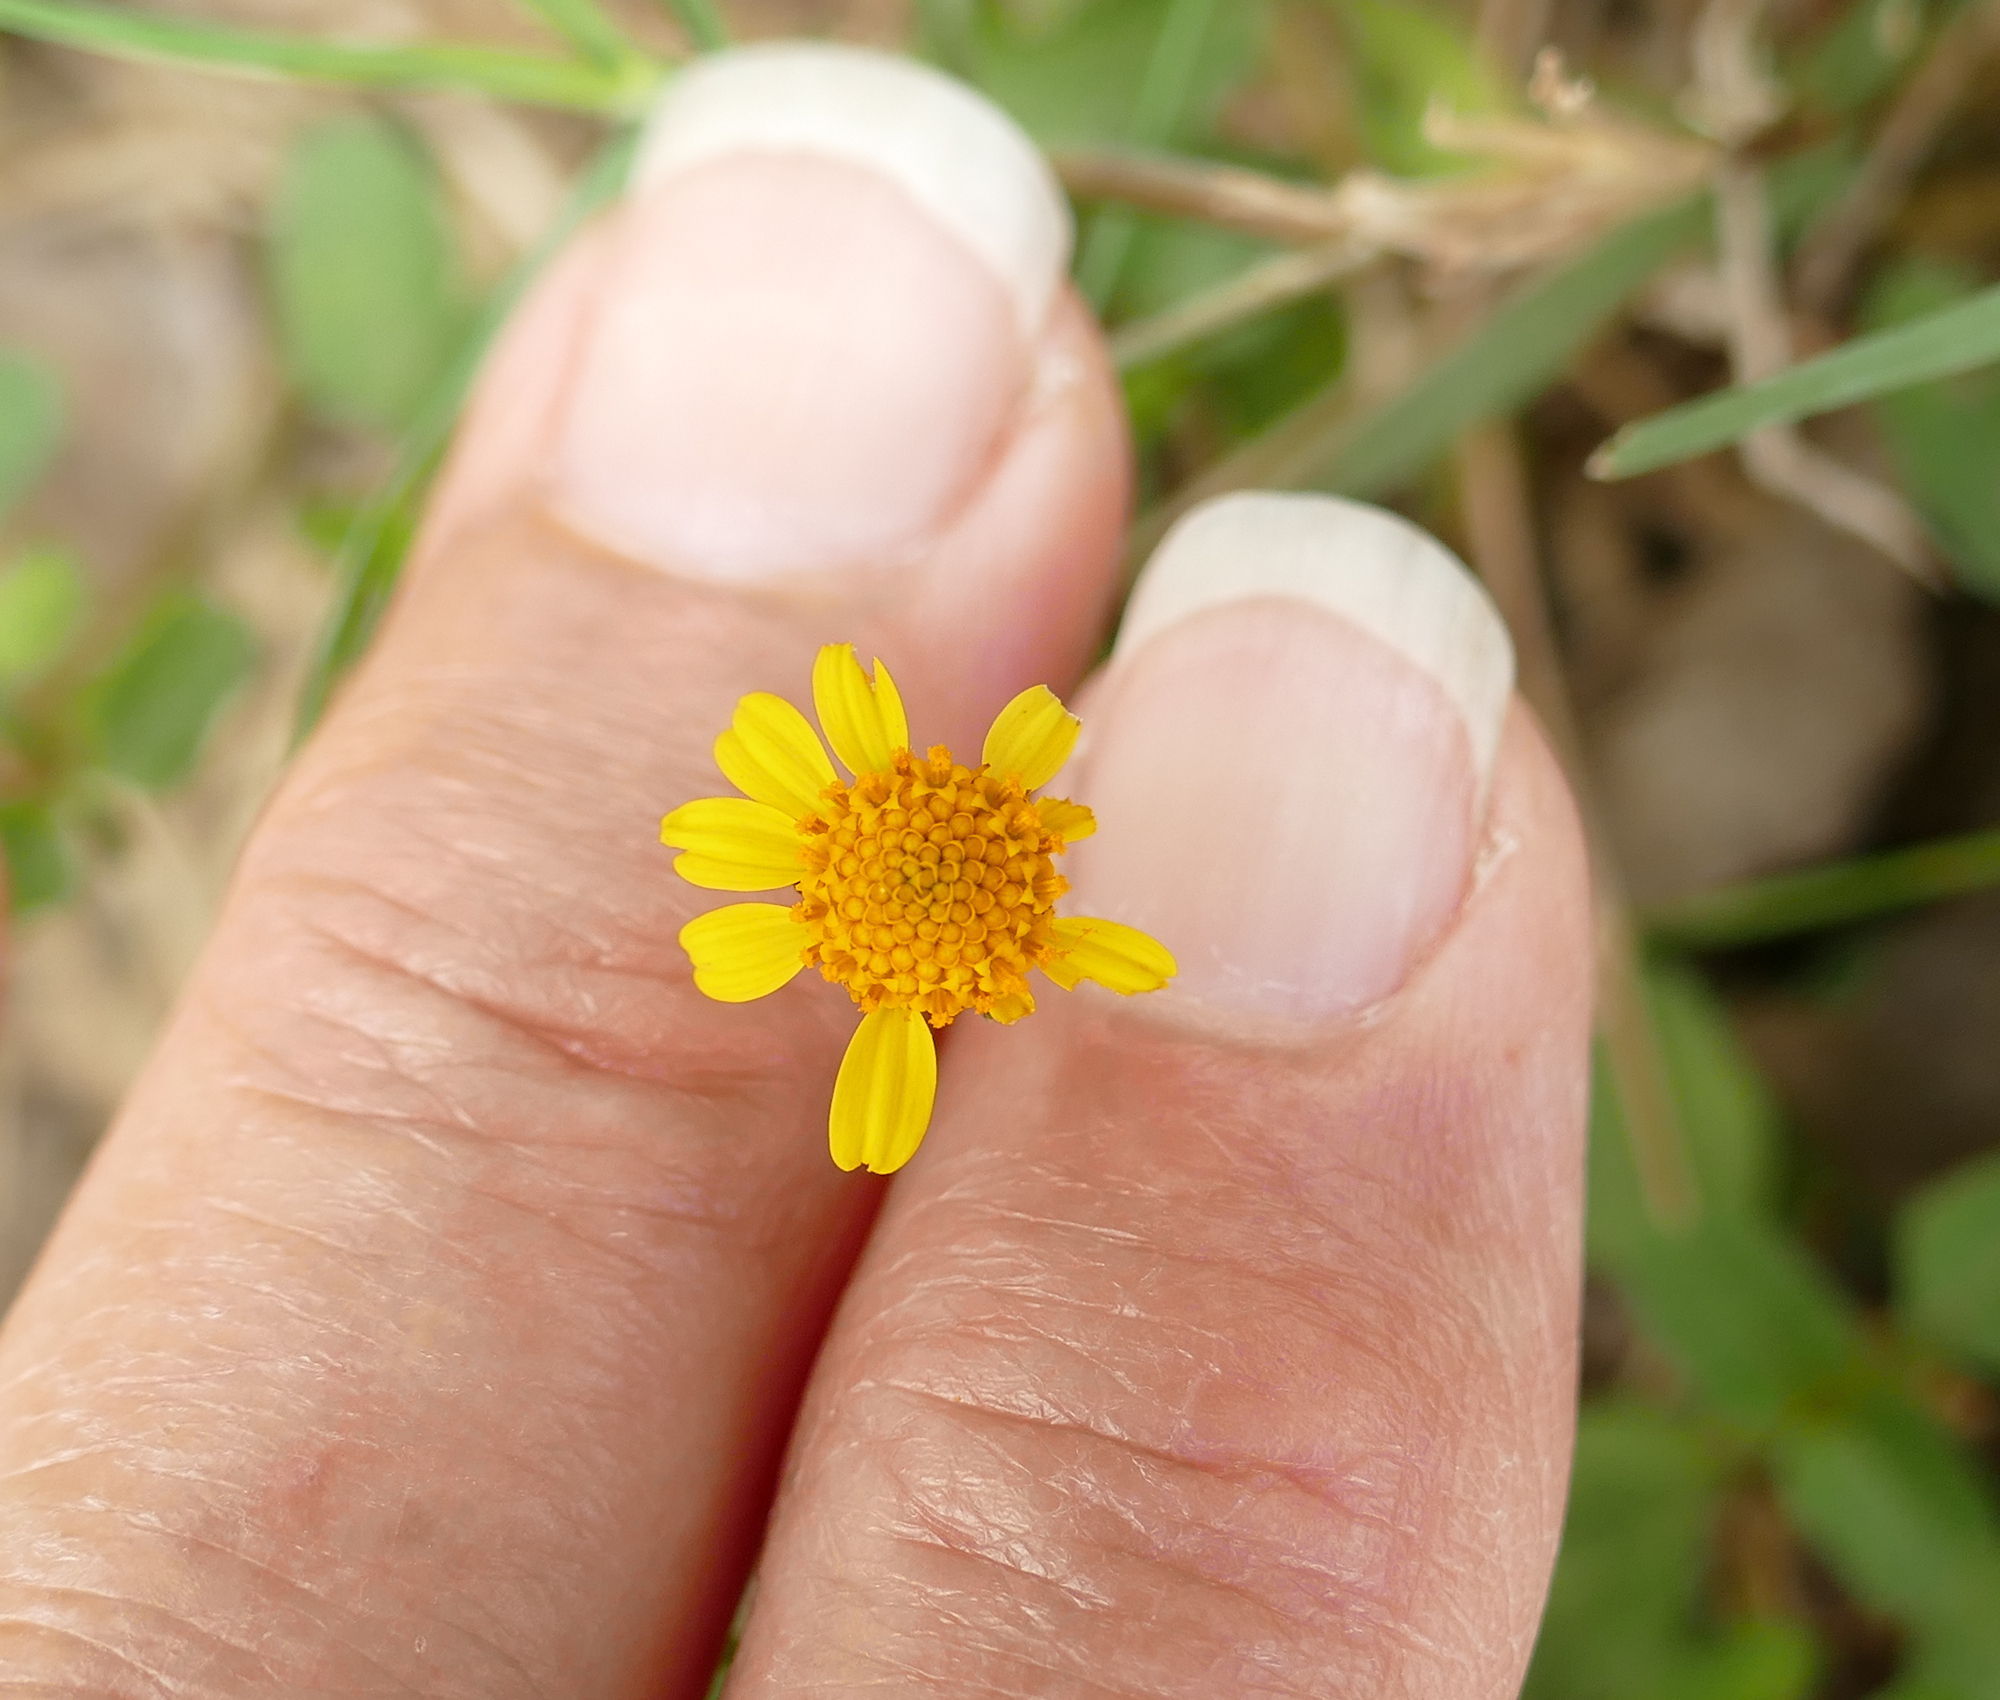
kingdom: Plantae
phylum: Tracheophyta
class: Magnoliopsida
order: Asterales
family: Asteraceae
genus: Acmella
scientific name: Acmella repens
